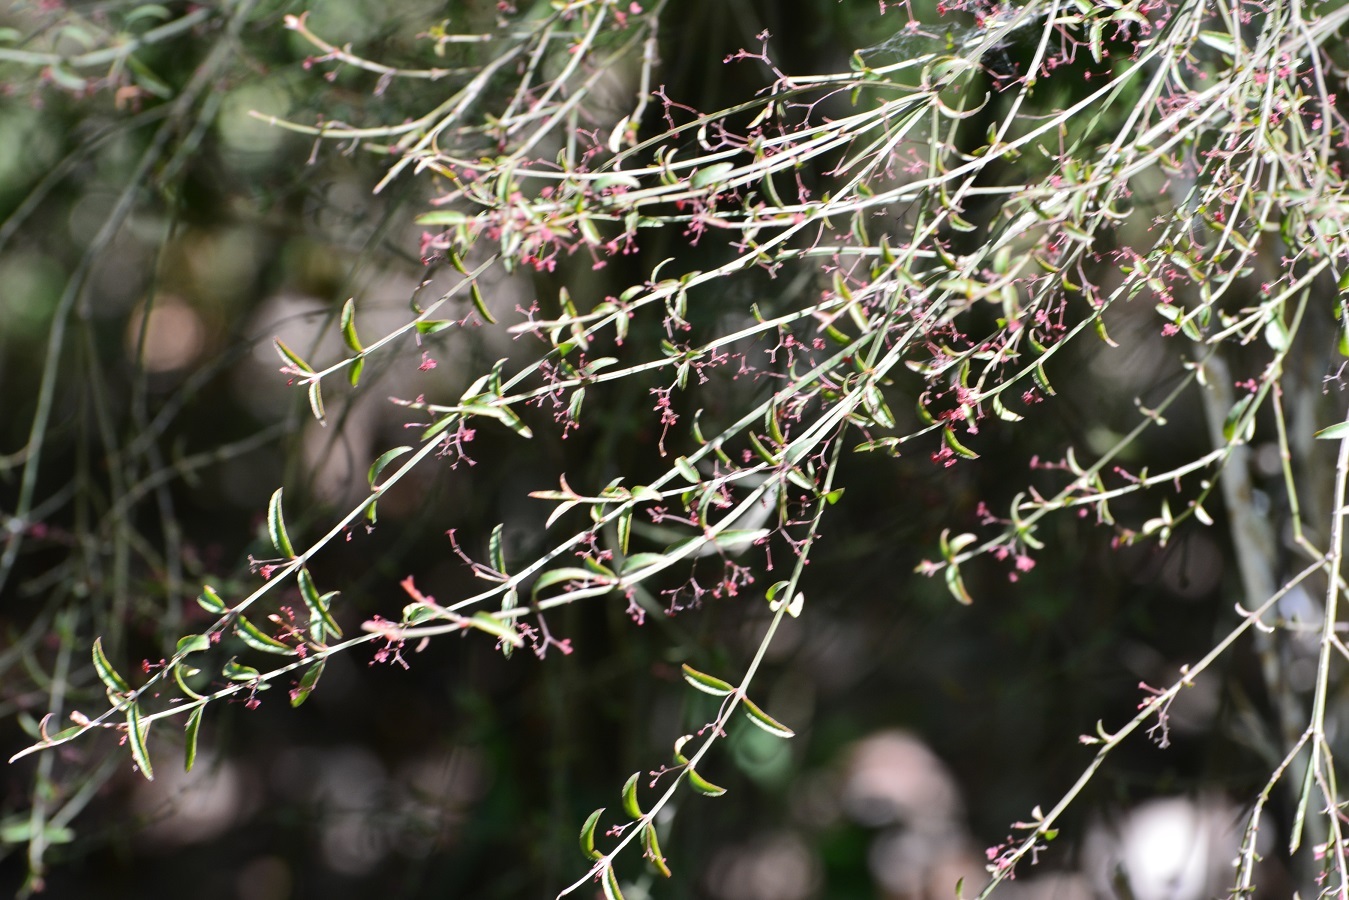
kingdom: Plantae
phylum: Tracheophyta
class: Magnoliopsida
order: Celastrales
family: Celastraceae
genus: Crossopetalum
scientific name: Crossopetalum uragoga
